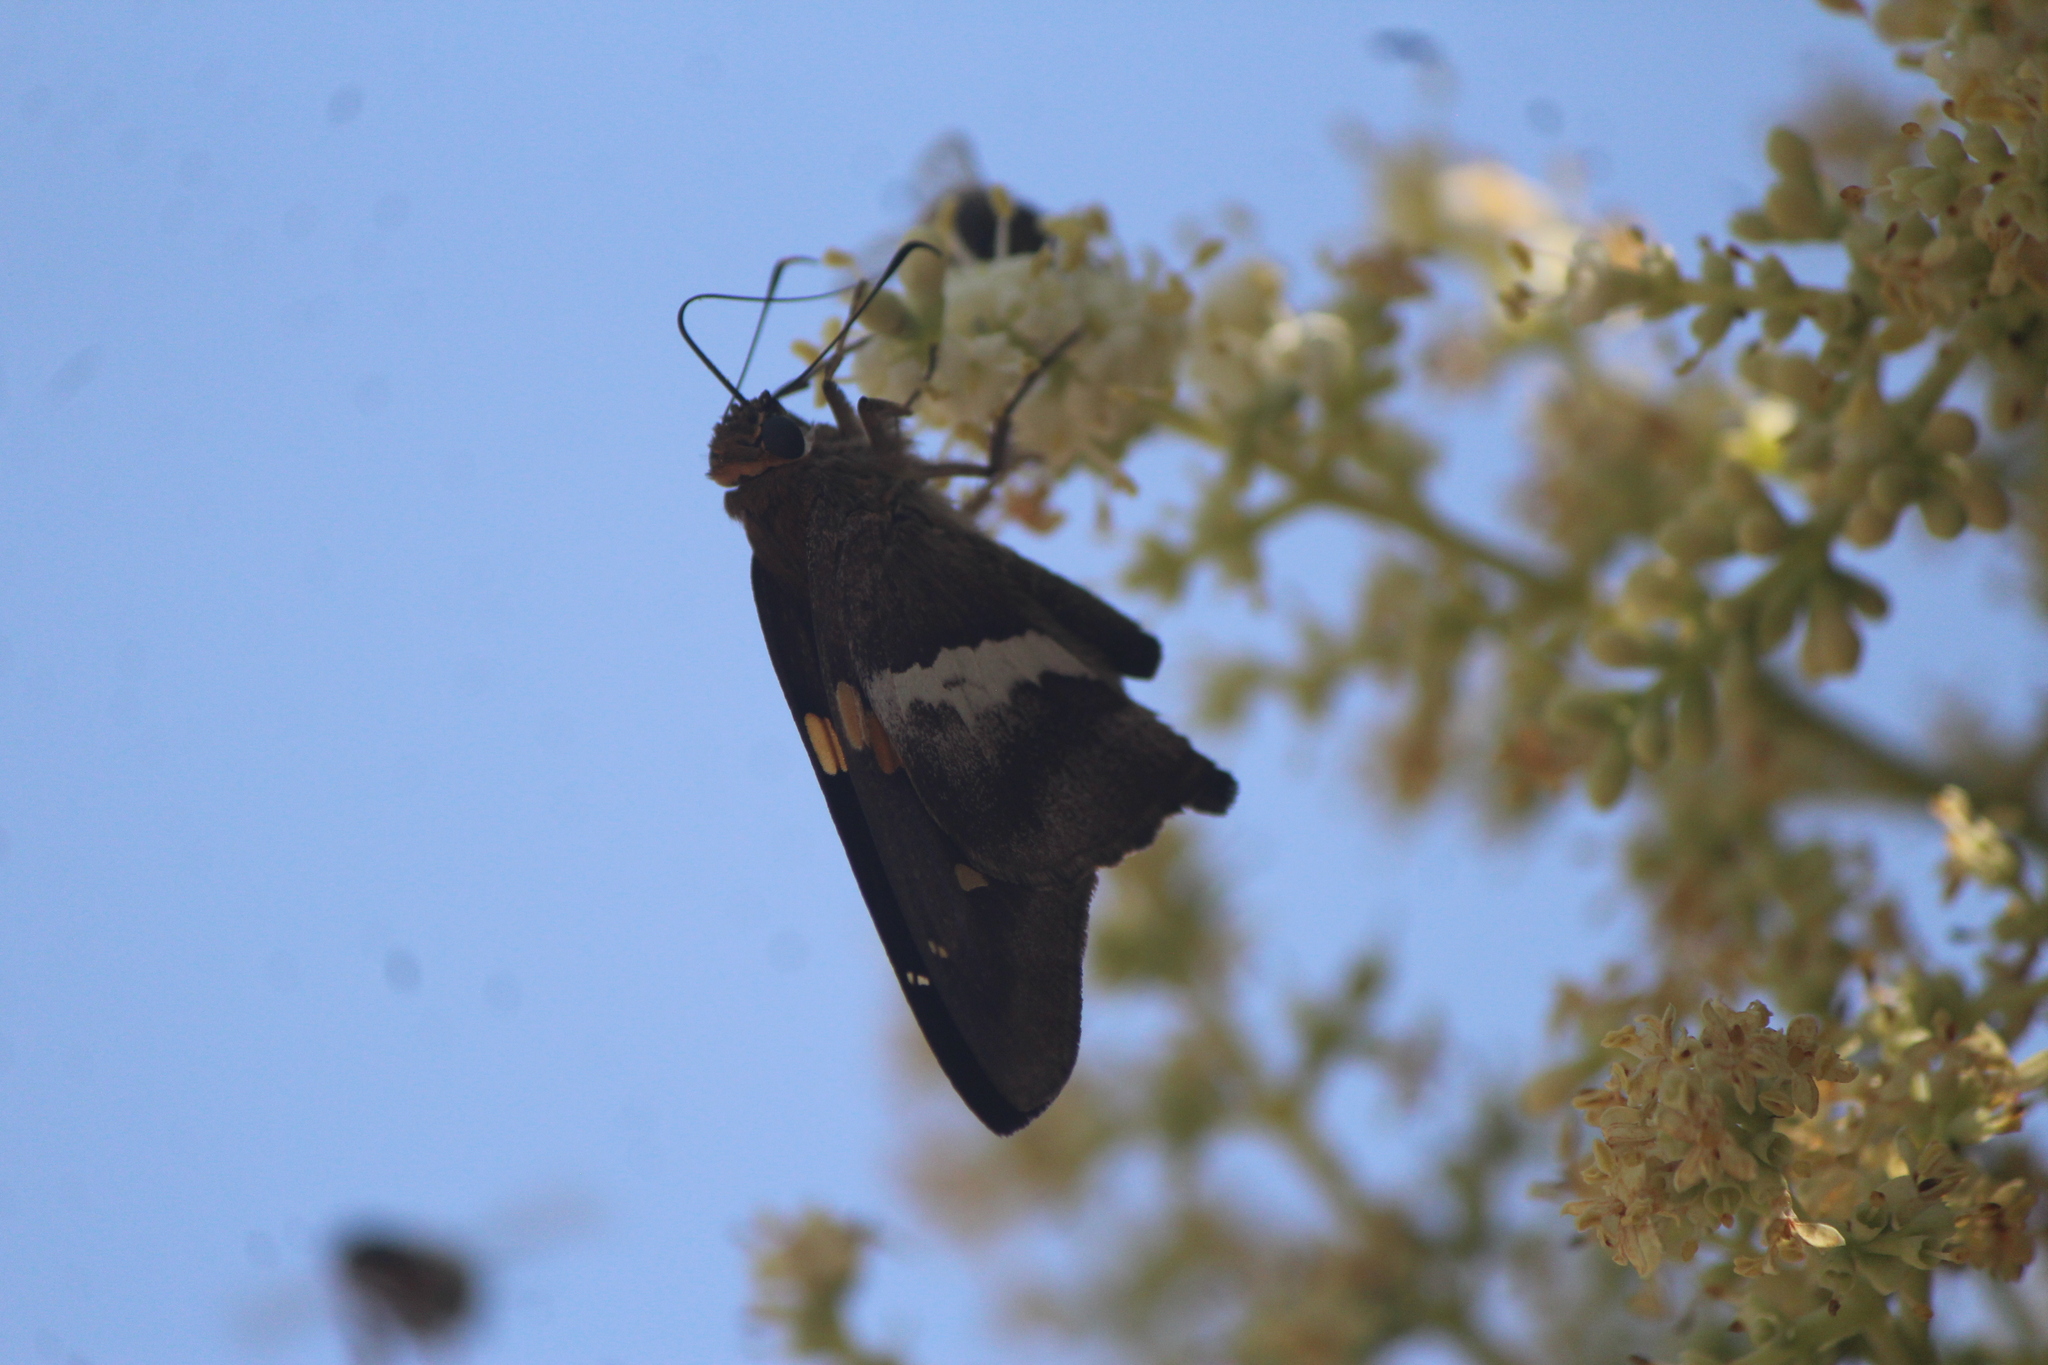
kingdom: Animalia
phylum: Arthropoda
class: Insecta
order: Lepidoptera
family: Hesperiidae
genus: Aguna
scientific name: Aguna asander
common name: Gold-spotted aguna
